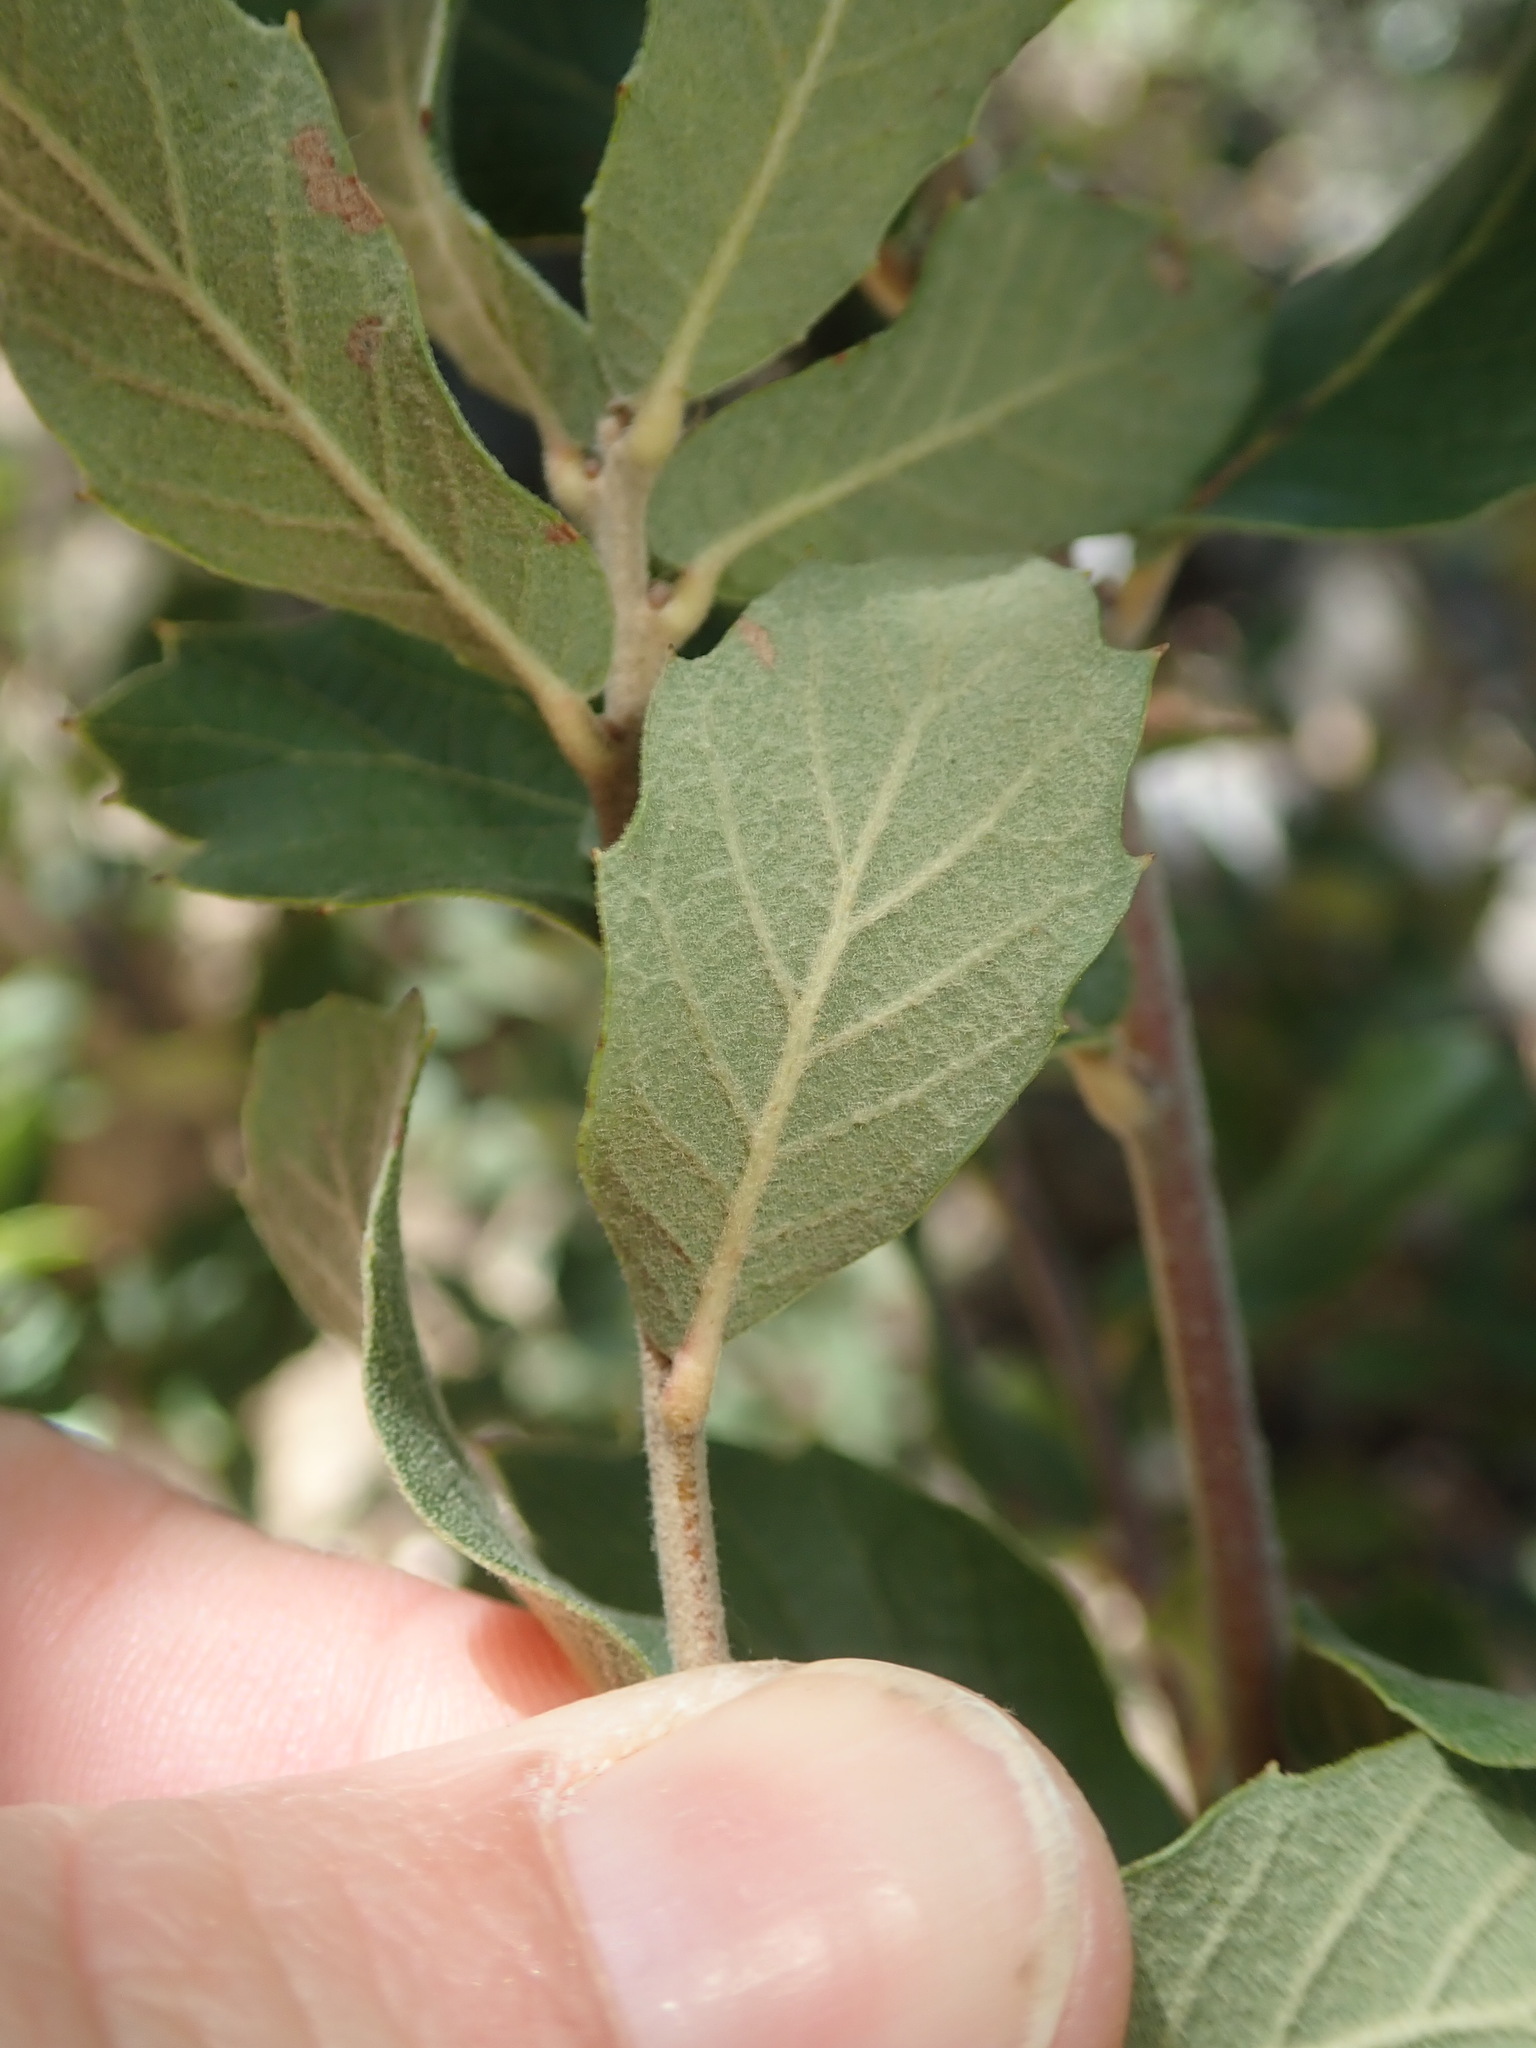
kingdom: Plantae
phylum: Tracheophyta
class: Magnoliopsida
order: Fagales
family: Fagaceae
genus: Quercus
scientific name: Quercus arizonica
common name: Arizona white oak
